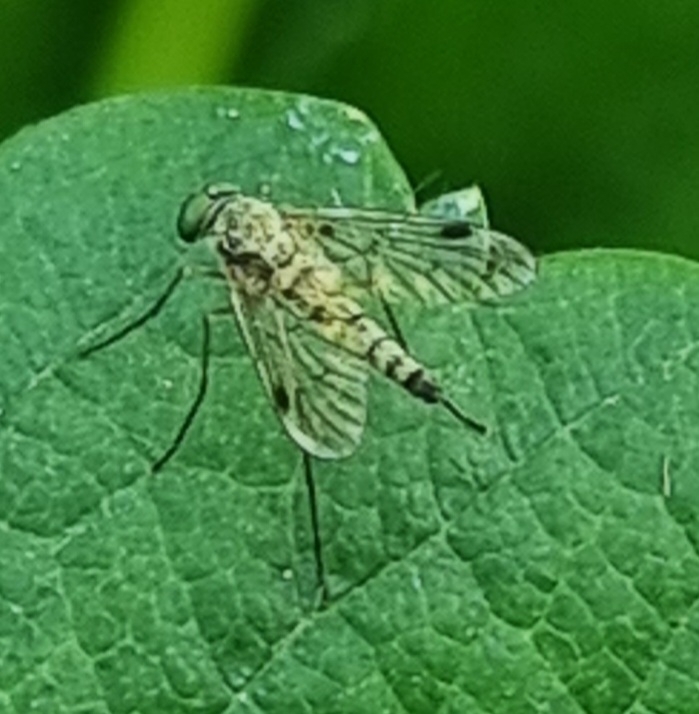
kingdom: Animalia
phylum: Arthropoda
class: Insecta
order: Diptera
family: Rhagionidae
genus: Chrysopilus
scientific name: Chrysopilus asiliformis
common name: Little snipefly
